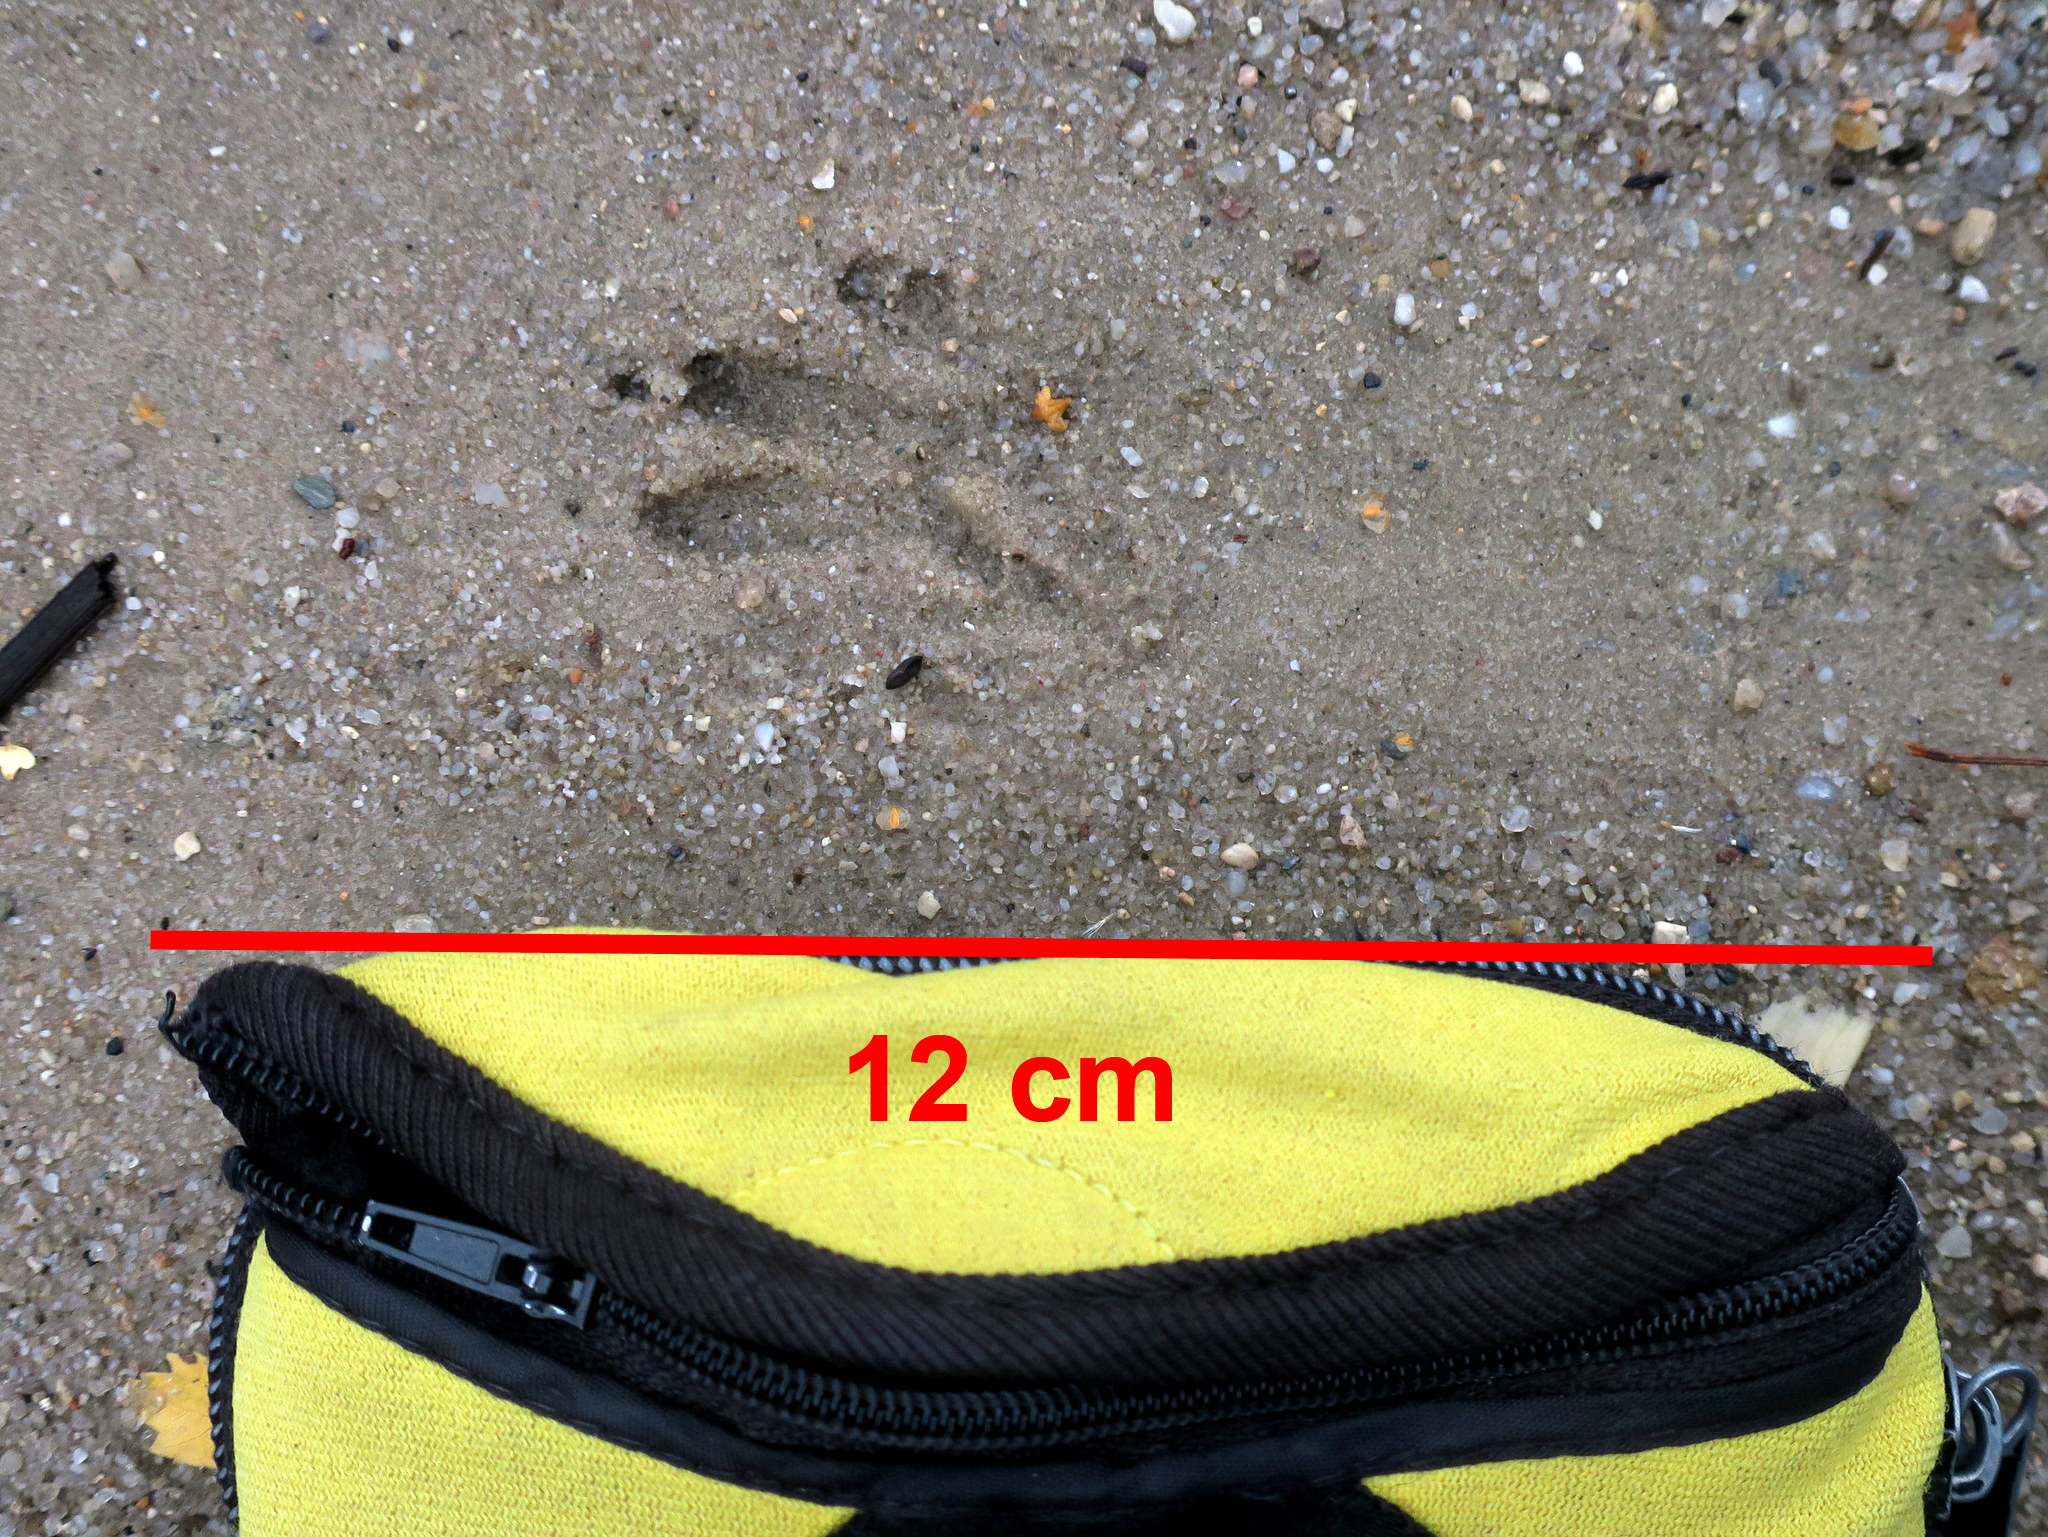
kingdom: Animalia
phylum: Chordata
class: Mammalia
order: Carnivora
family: Procyonidae
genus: Procyon
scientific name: Procyon lotor
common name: Raccoon
